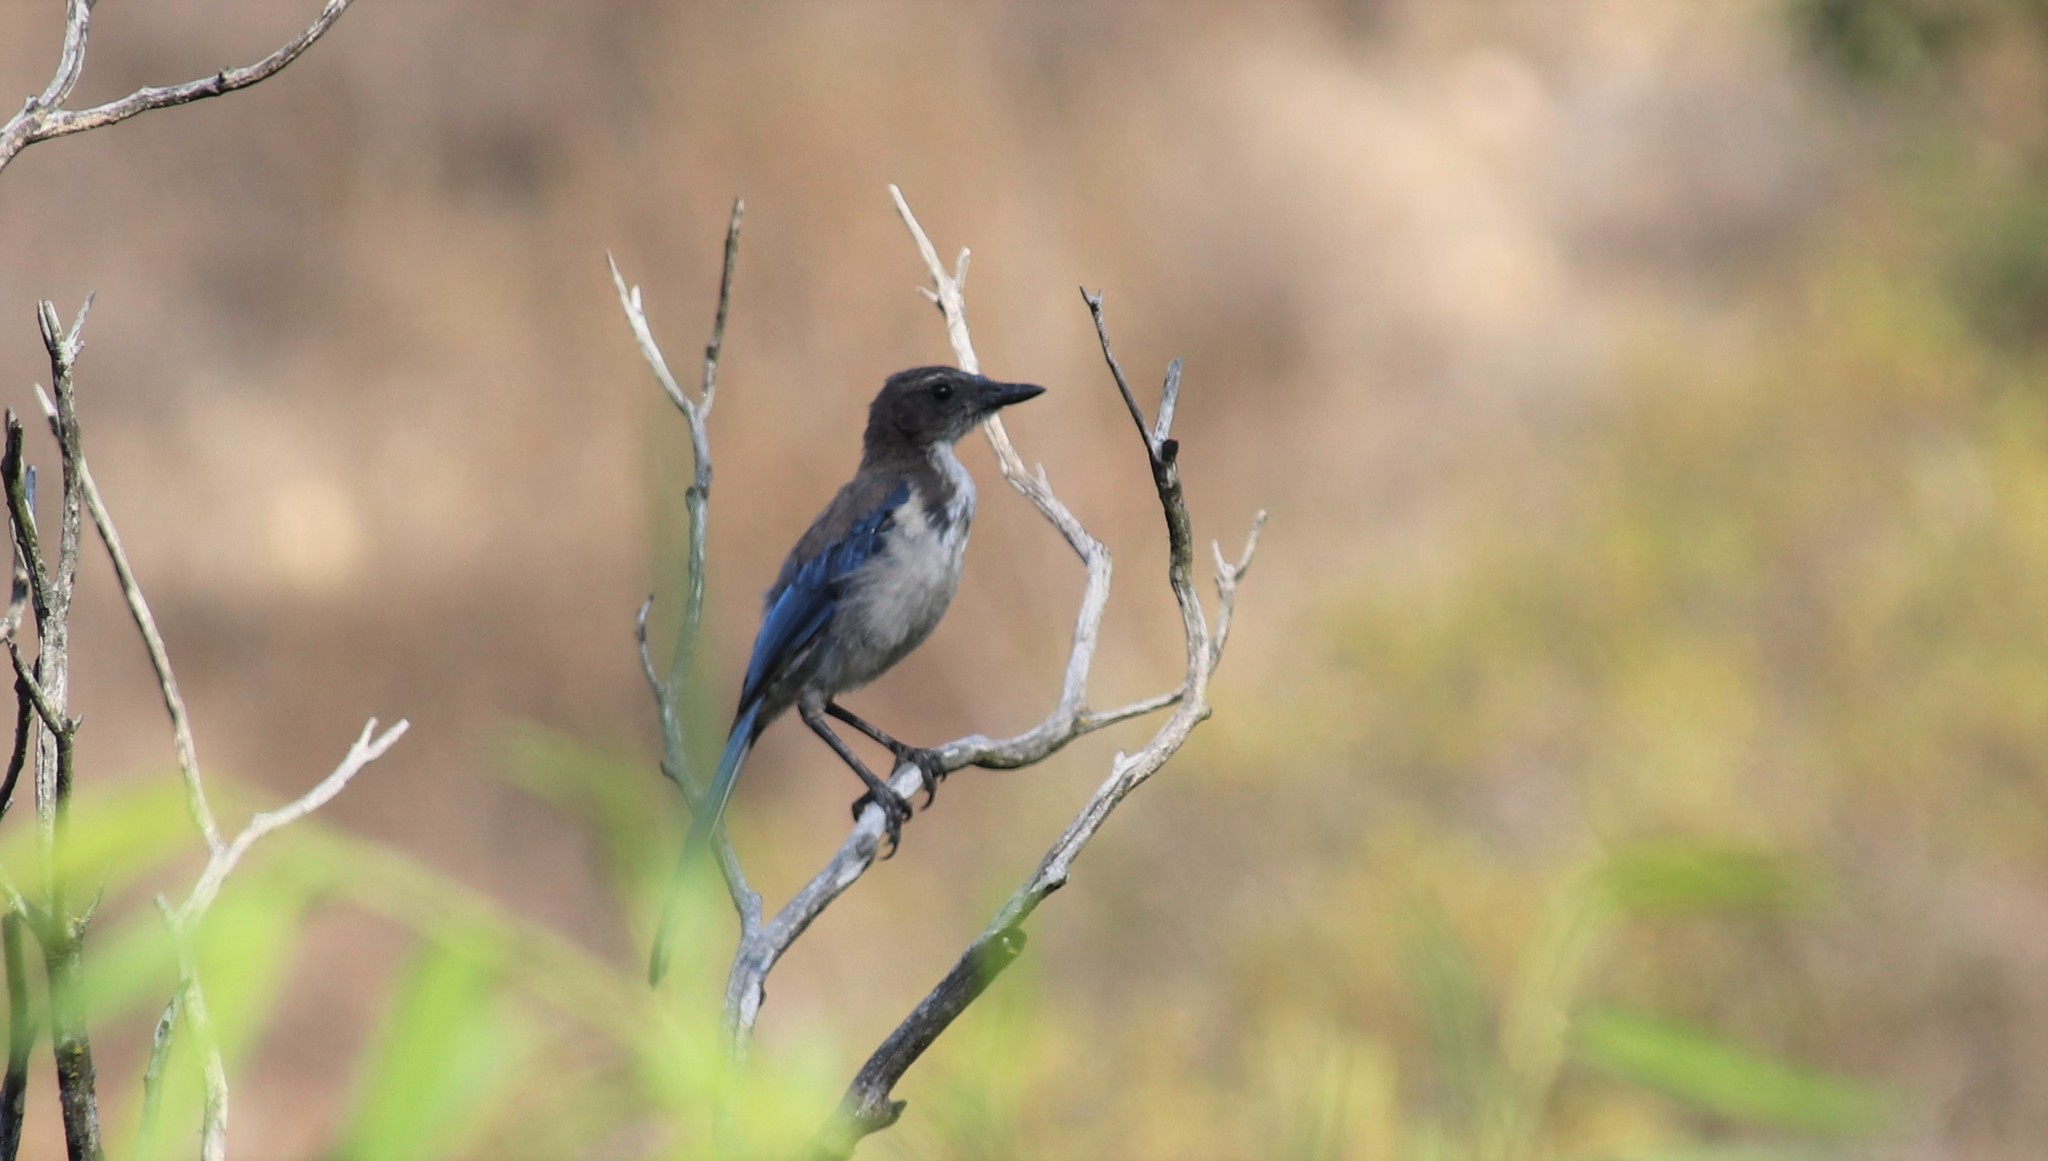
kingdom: Animalia
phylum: Chordata
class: Aves
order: Passeriformes
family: Corvidae
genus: Aphelocoma
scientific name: Aphelocoma californica
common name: California scrub-jay
